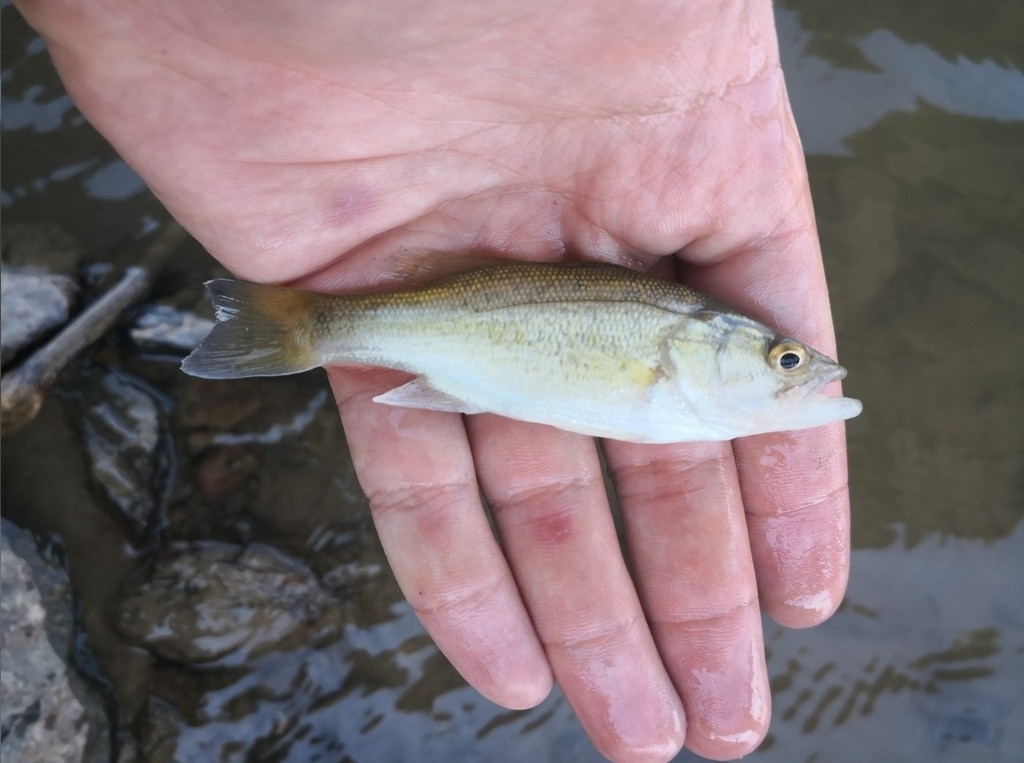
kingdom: Animalia
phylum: Chordata
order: Perciformes
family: Centrarchidae
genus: Micropterus
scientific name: Micropterus
